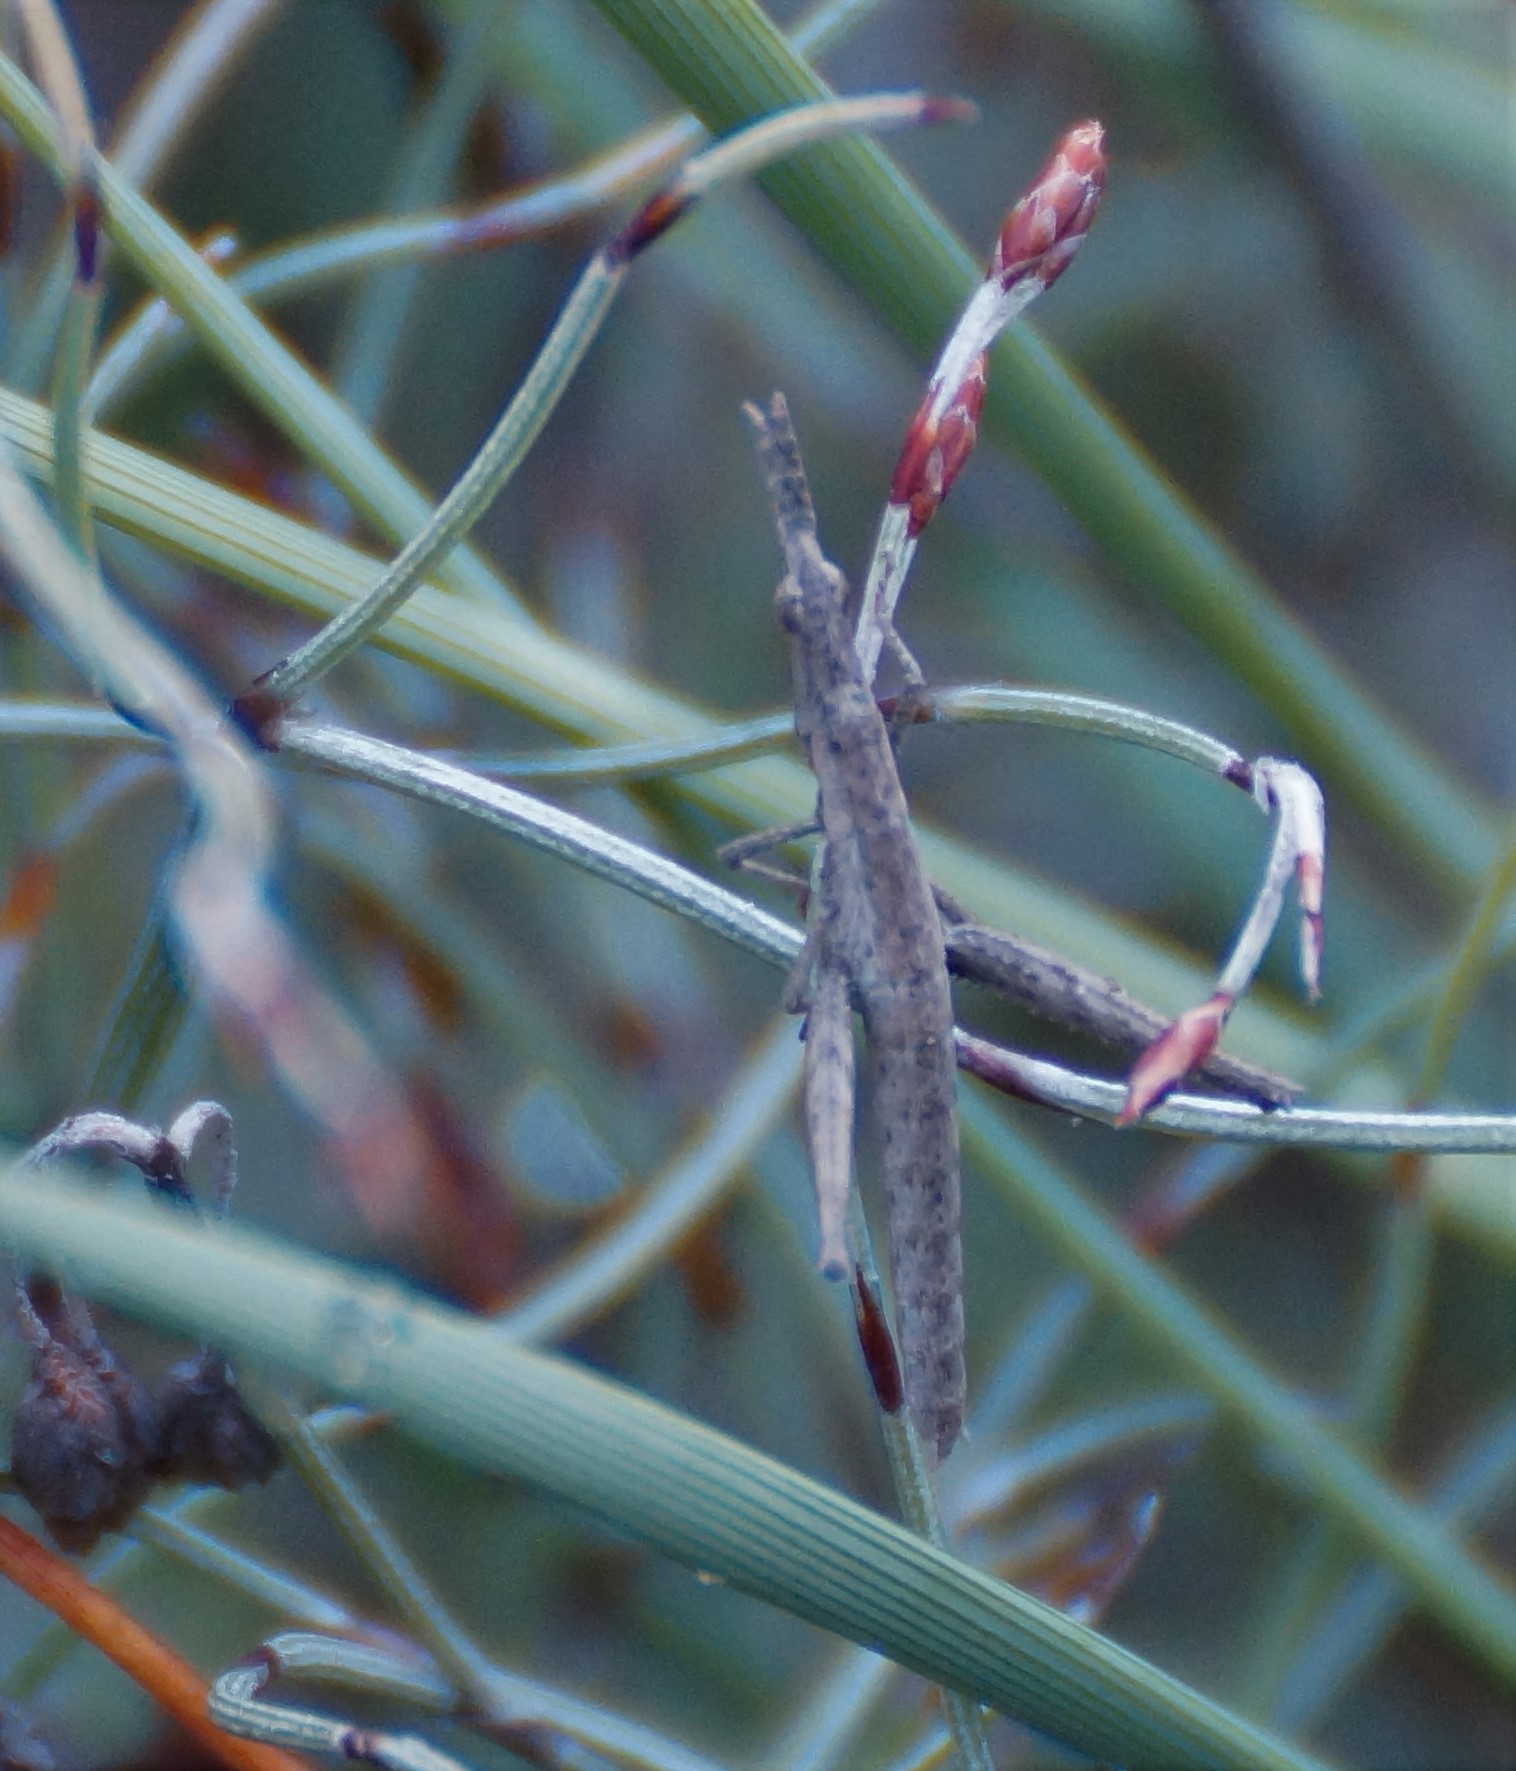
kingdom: Animalia
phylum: Arthropoda
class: Insecta
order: Orthoptera
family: Morabidae
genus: Vandiemenella
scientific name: Vandiemenella viatica
